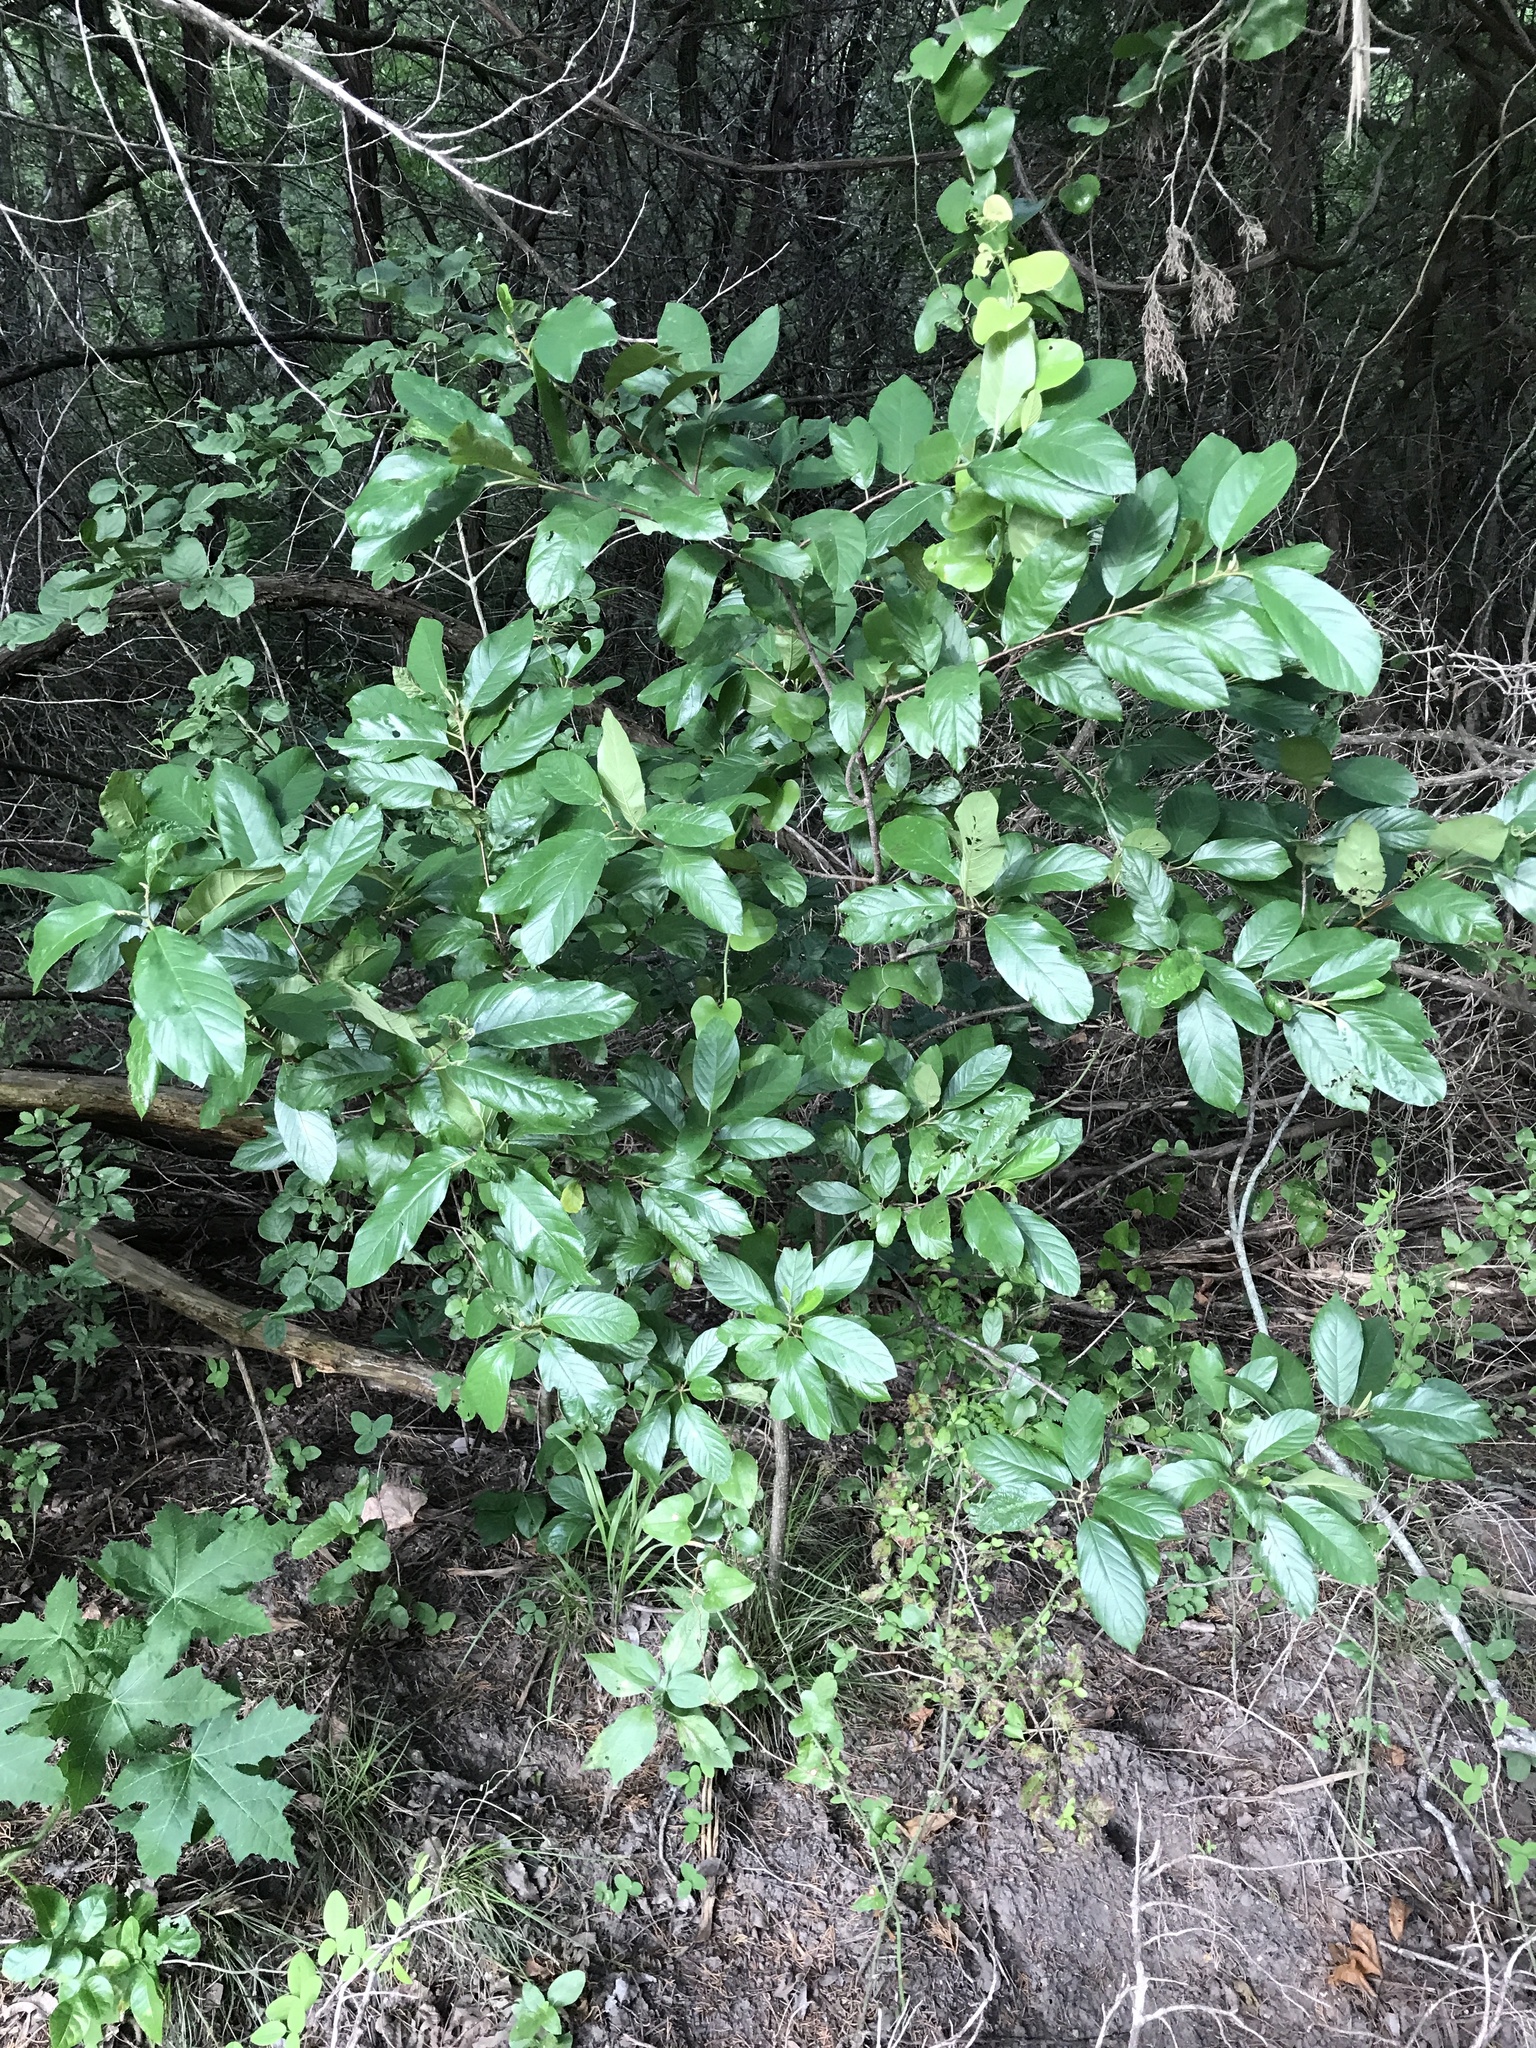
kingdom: Plantae
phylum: Tracheophyta
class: Magnoliopsida
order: Rosales
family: Rhamnaceae
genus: Frangula
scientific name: Frangula caroliniana
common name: Carolina buckthorn
